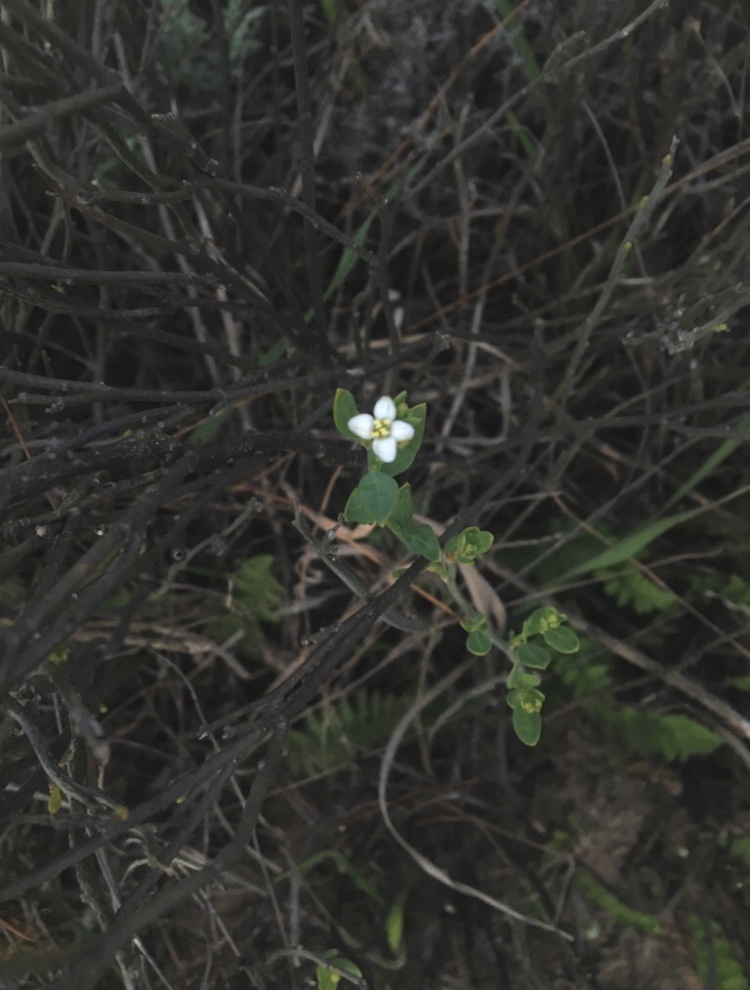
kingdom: Plantae
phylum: Tracheophyta
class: Magnoliopsida
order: Solanales
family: Montiniaceae
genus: Montinia
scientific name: Montinia caryophyllacea
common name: Wild clove-bush
